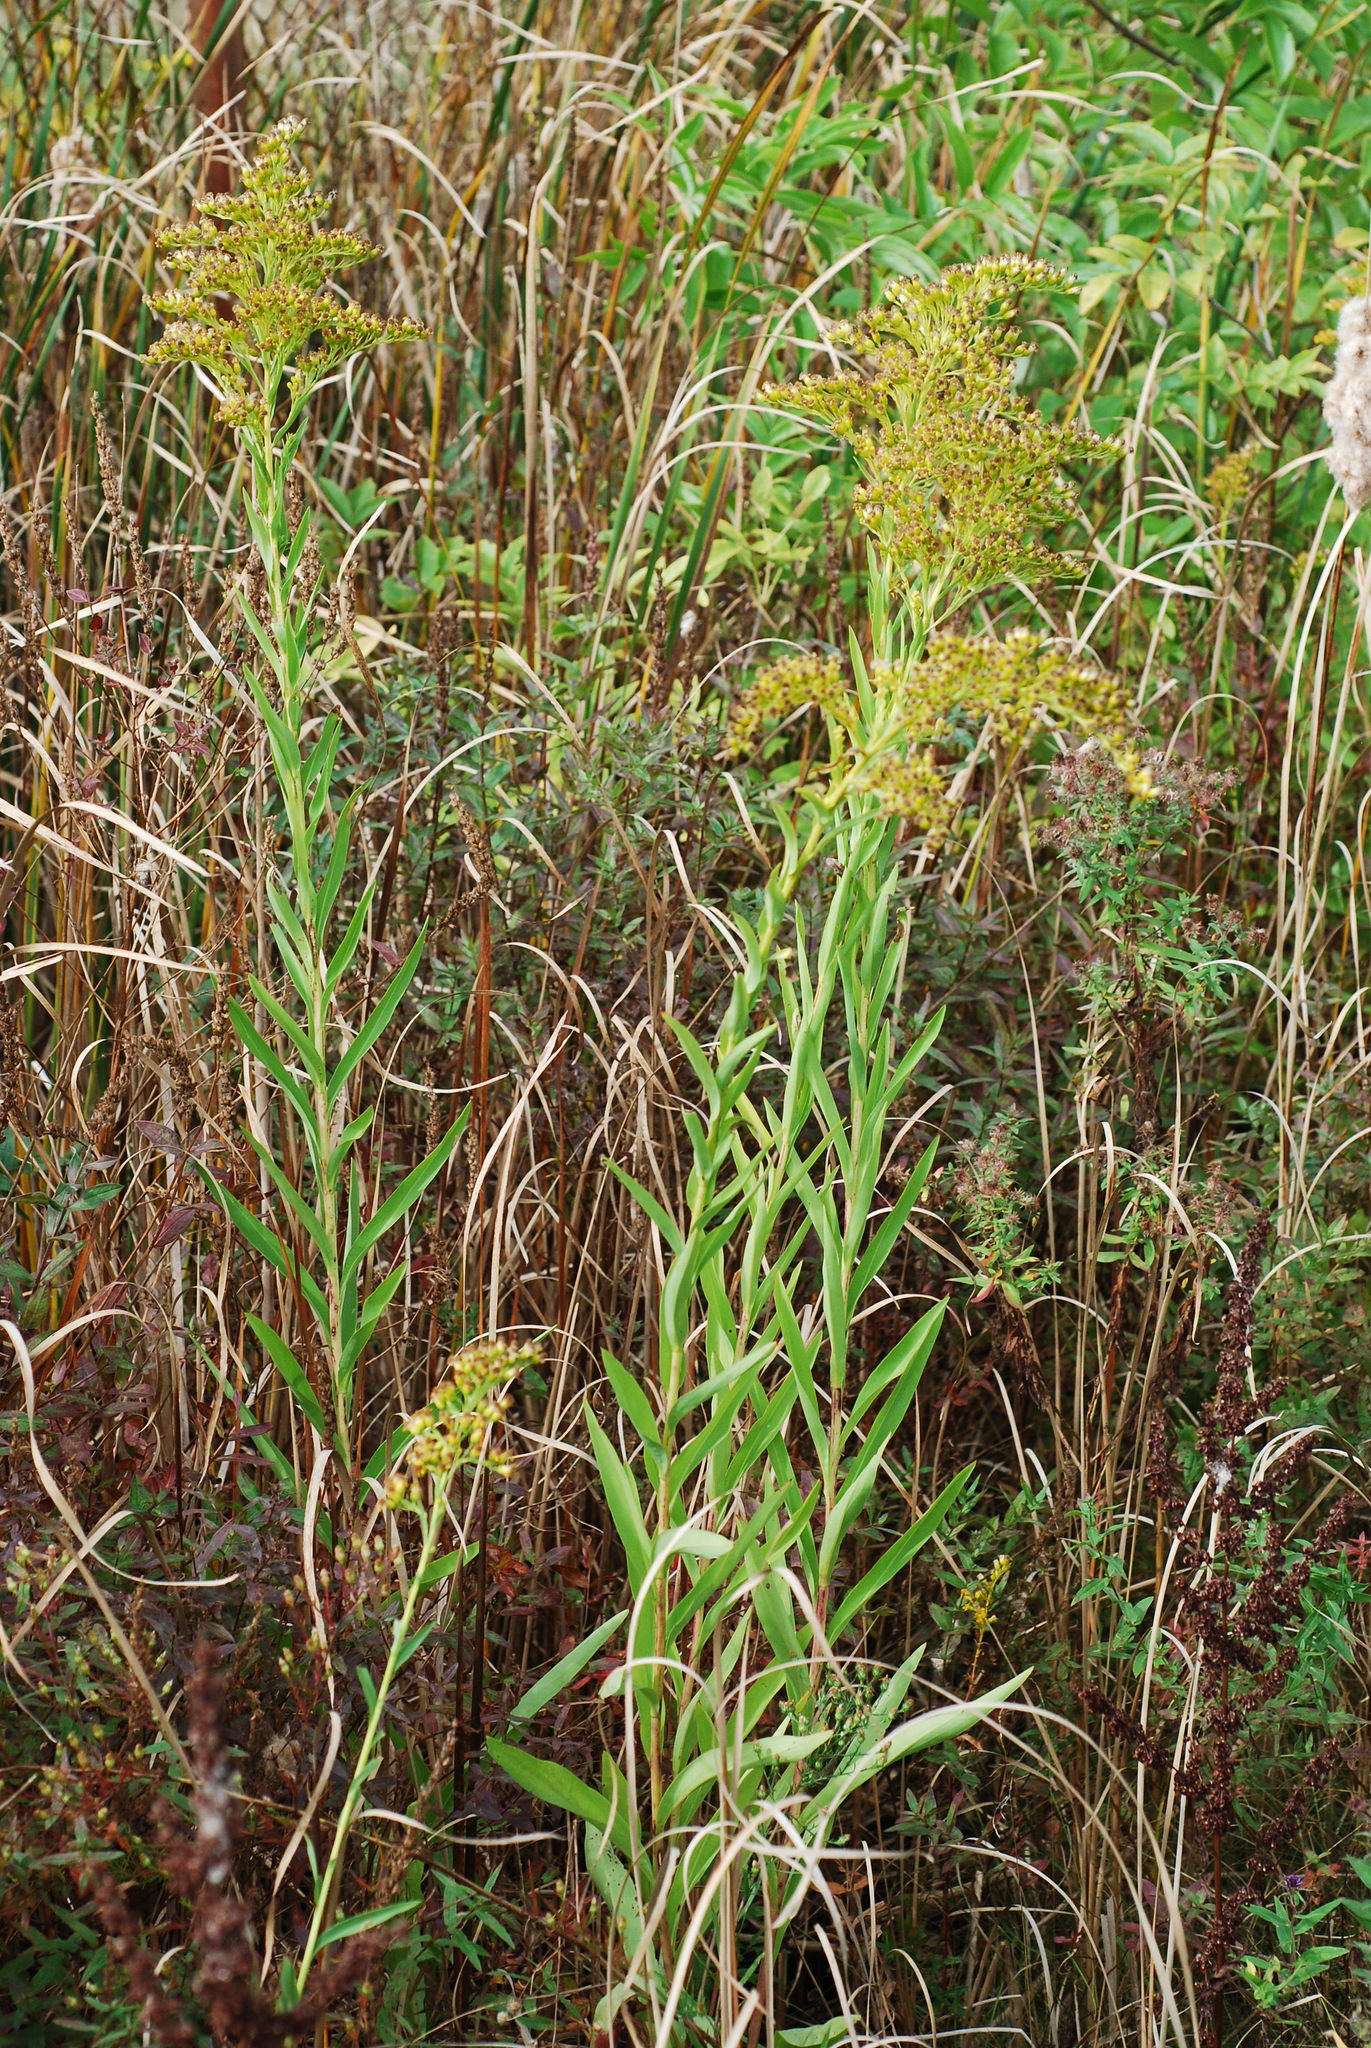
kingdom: Plantae
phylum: Tracheophyta
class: Magnoliopsida
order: Asterales
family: Asteraceae
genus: Solidago
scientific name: Solidago sempervirens
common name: Salt-marsh goldenrod
